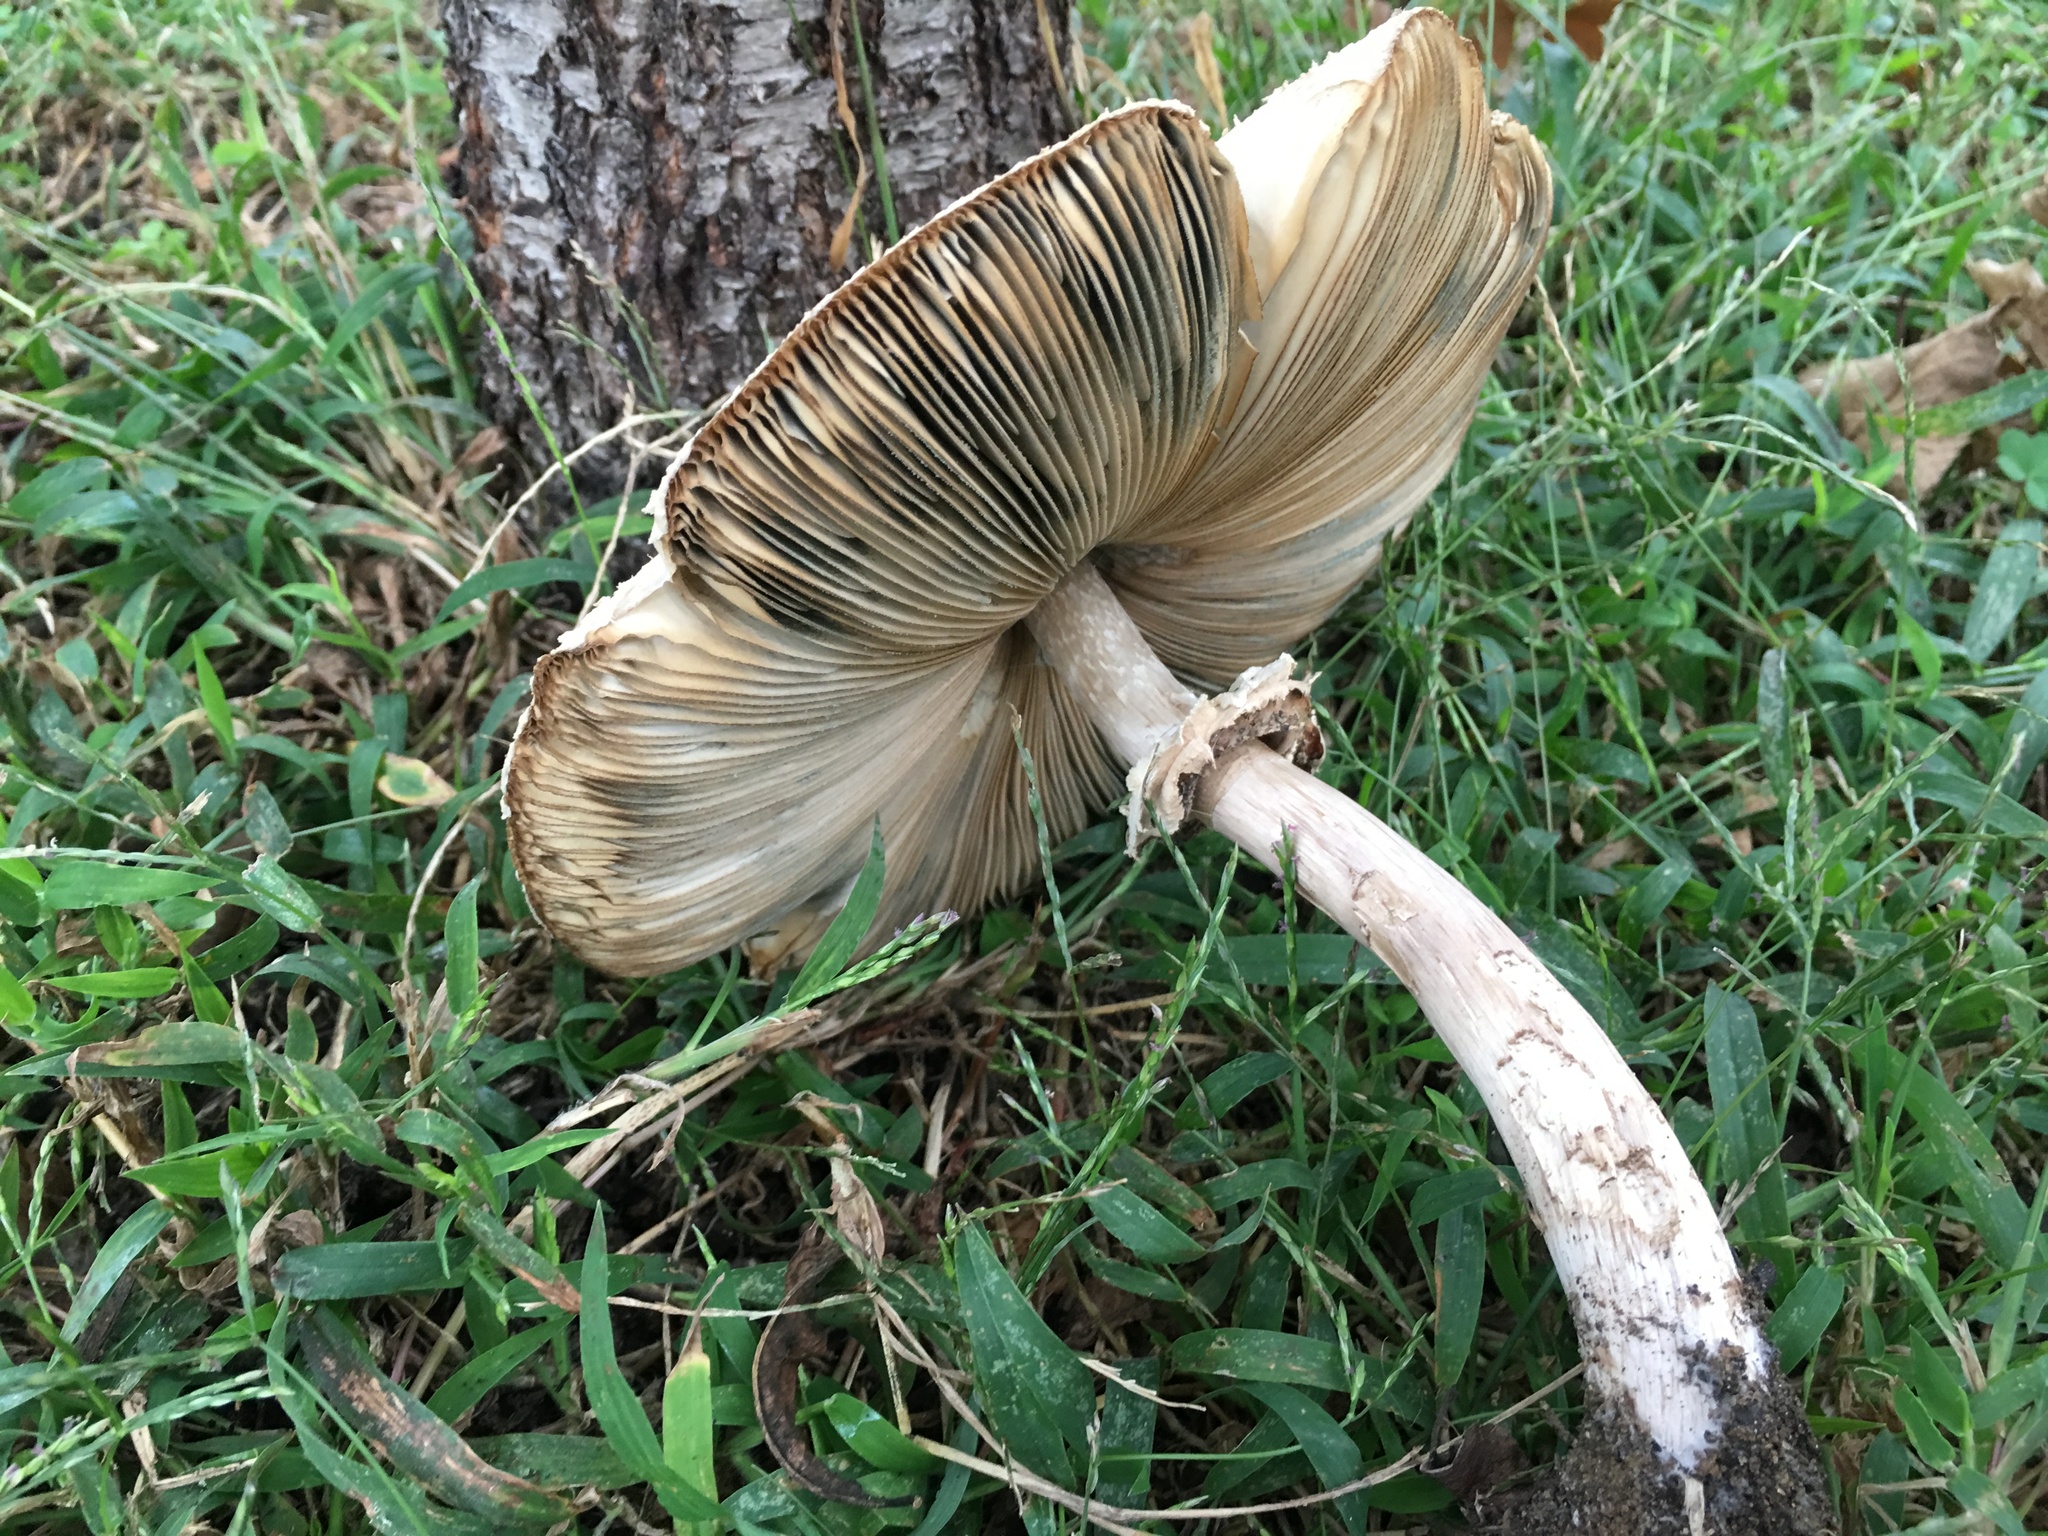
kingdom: Fungi
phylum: Basidiomycota
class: Agaricomycetes
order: Agaricales
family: Agaricaceae
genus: Chlorophyllum
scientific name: Chlorophyllum molybdites
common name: False parasol
